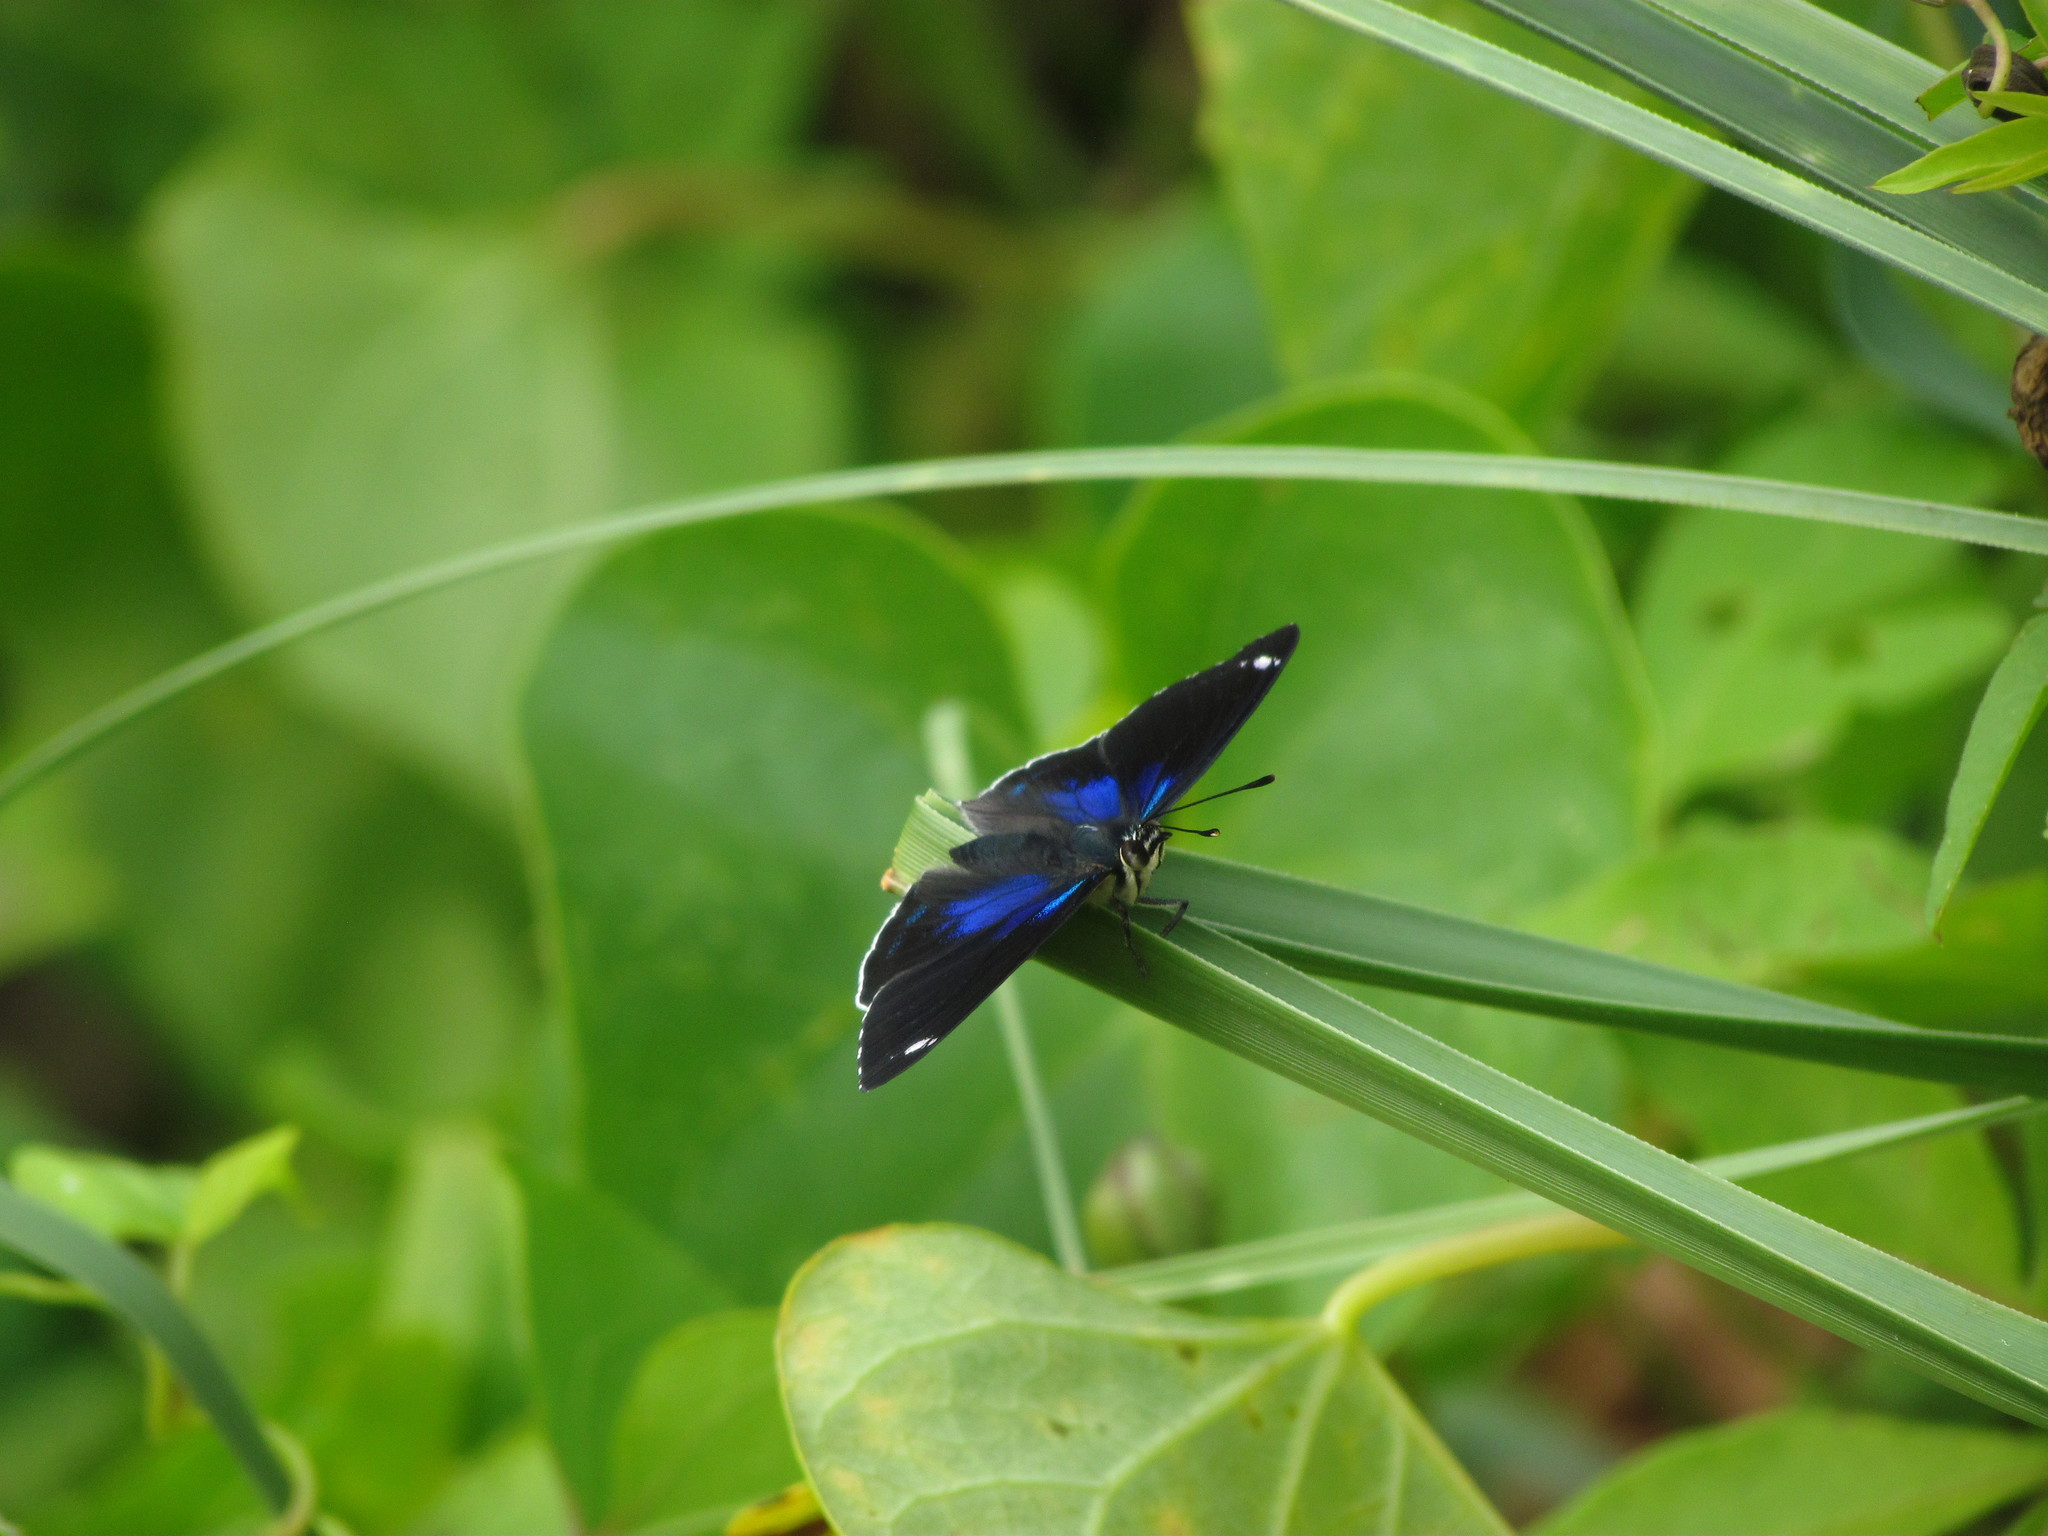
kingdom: Animalia
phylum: Arthropoda
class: Insecta
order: Lepidoptera
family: Nymphalidae
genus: Diaethria
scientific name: Diaethria candrena
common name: Number eighty
